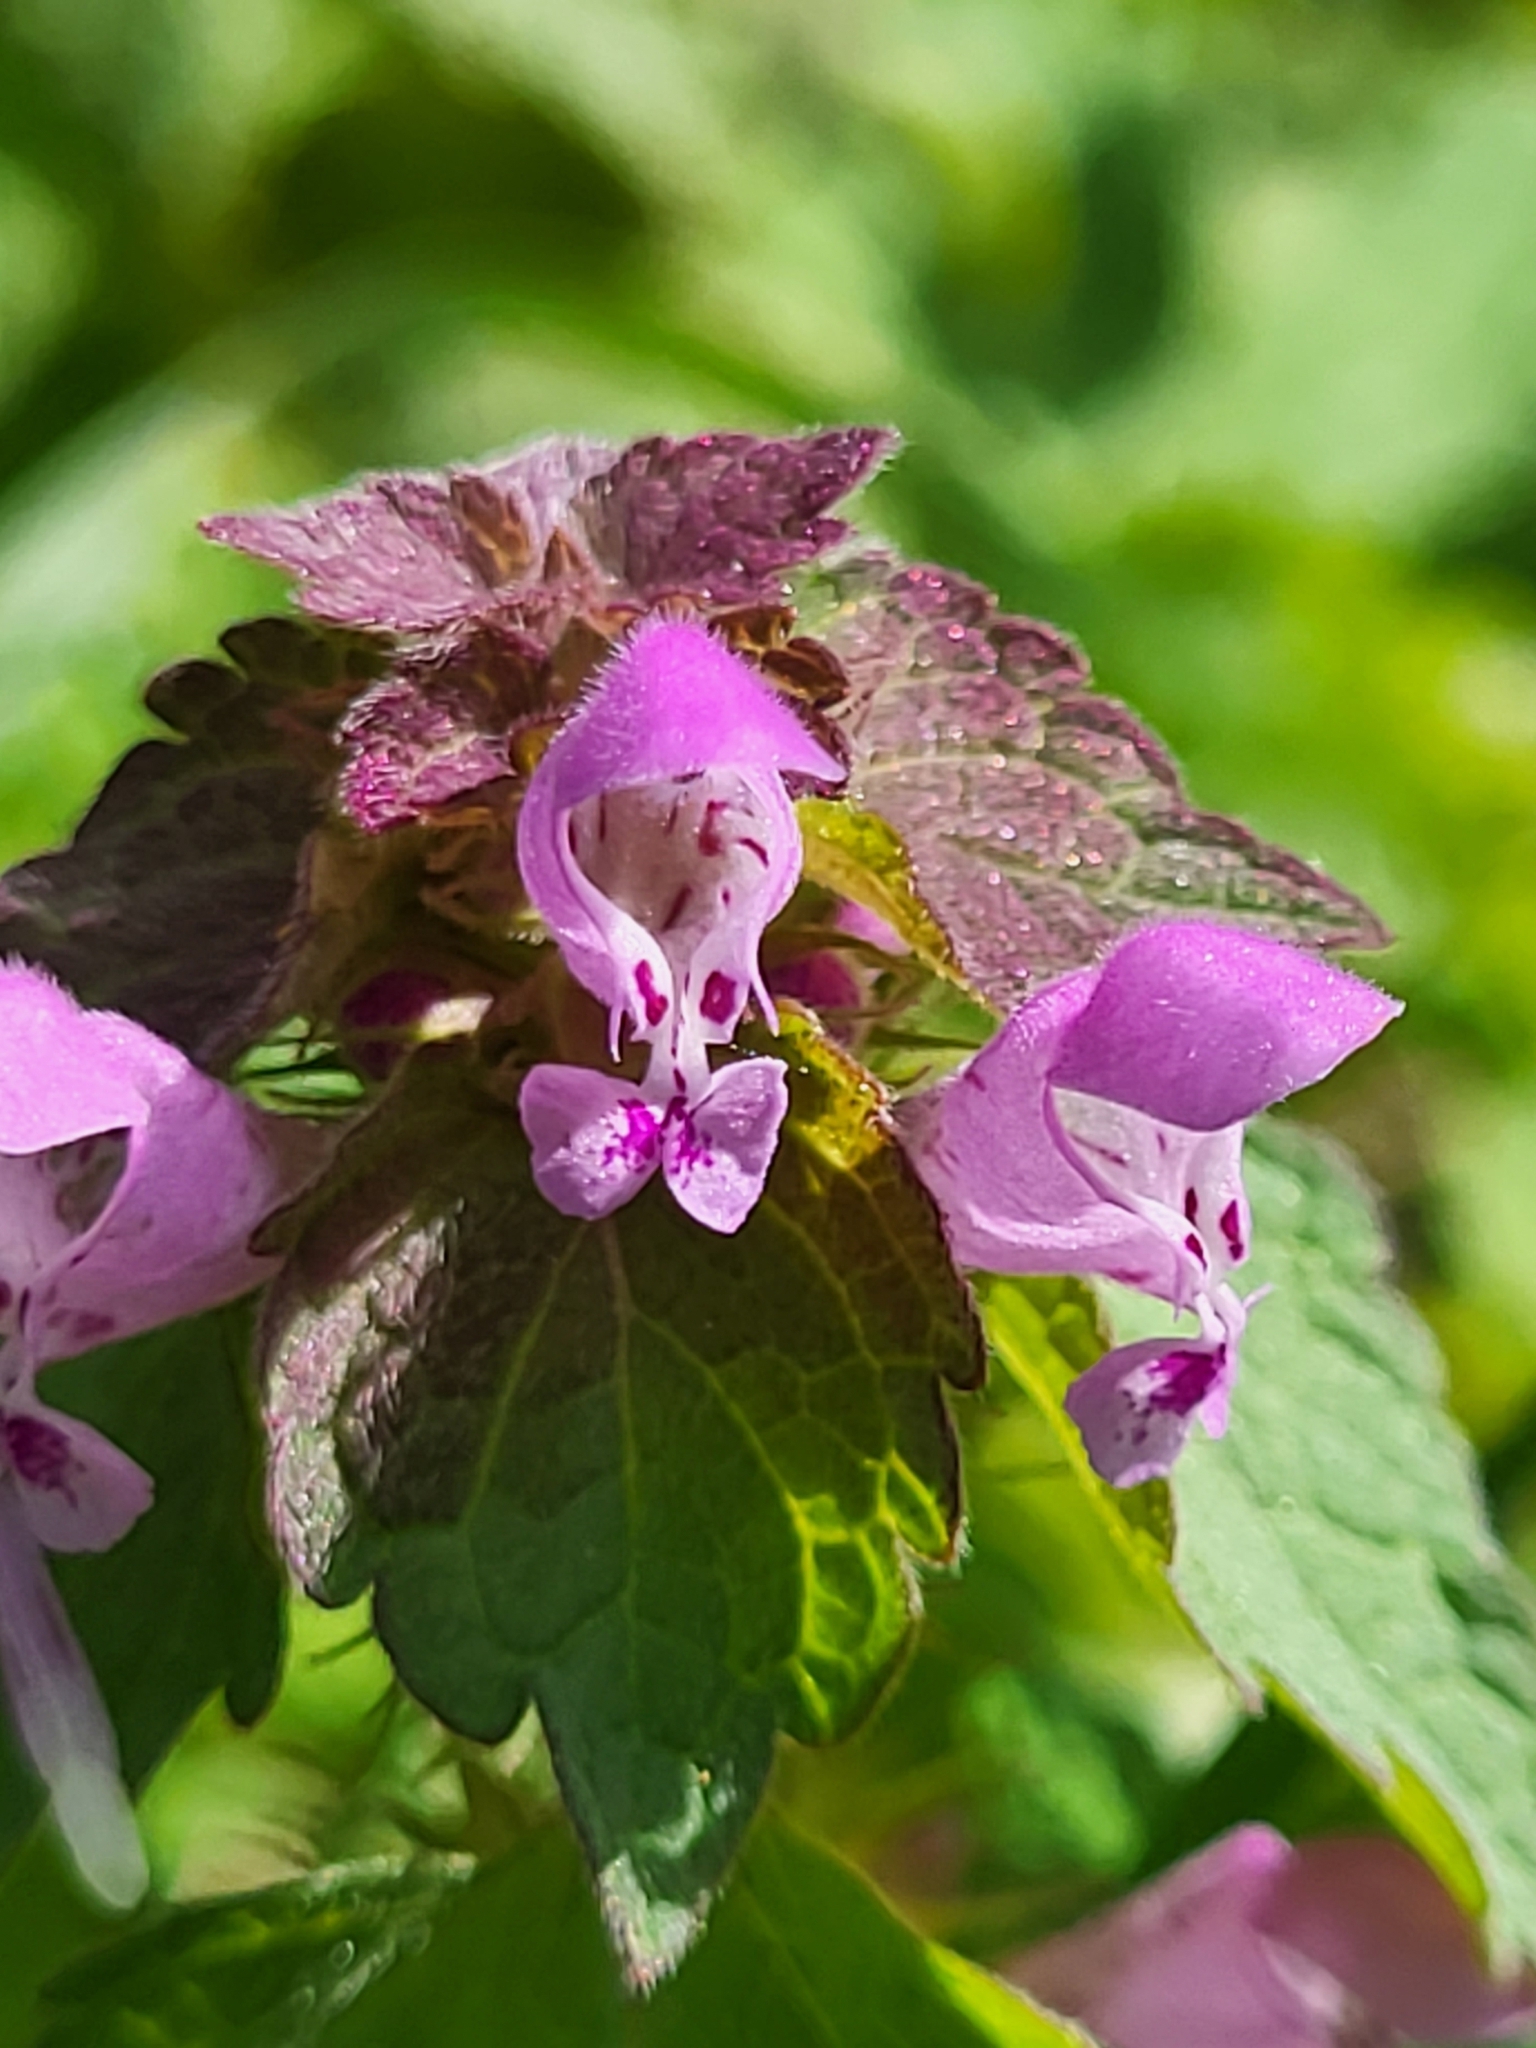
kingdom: Plantae
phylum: Tracheophyta
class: Magnoliopsida
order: Lamiales
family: Lamiaceae
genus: Lamium
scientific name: Lamium purpureum
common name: Red dead-nettle
